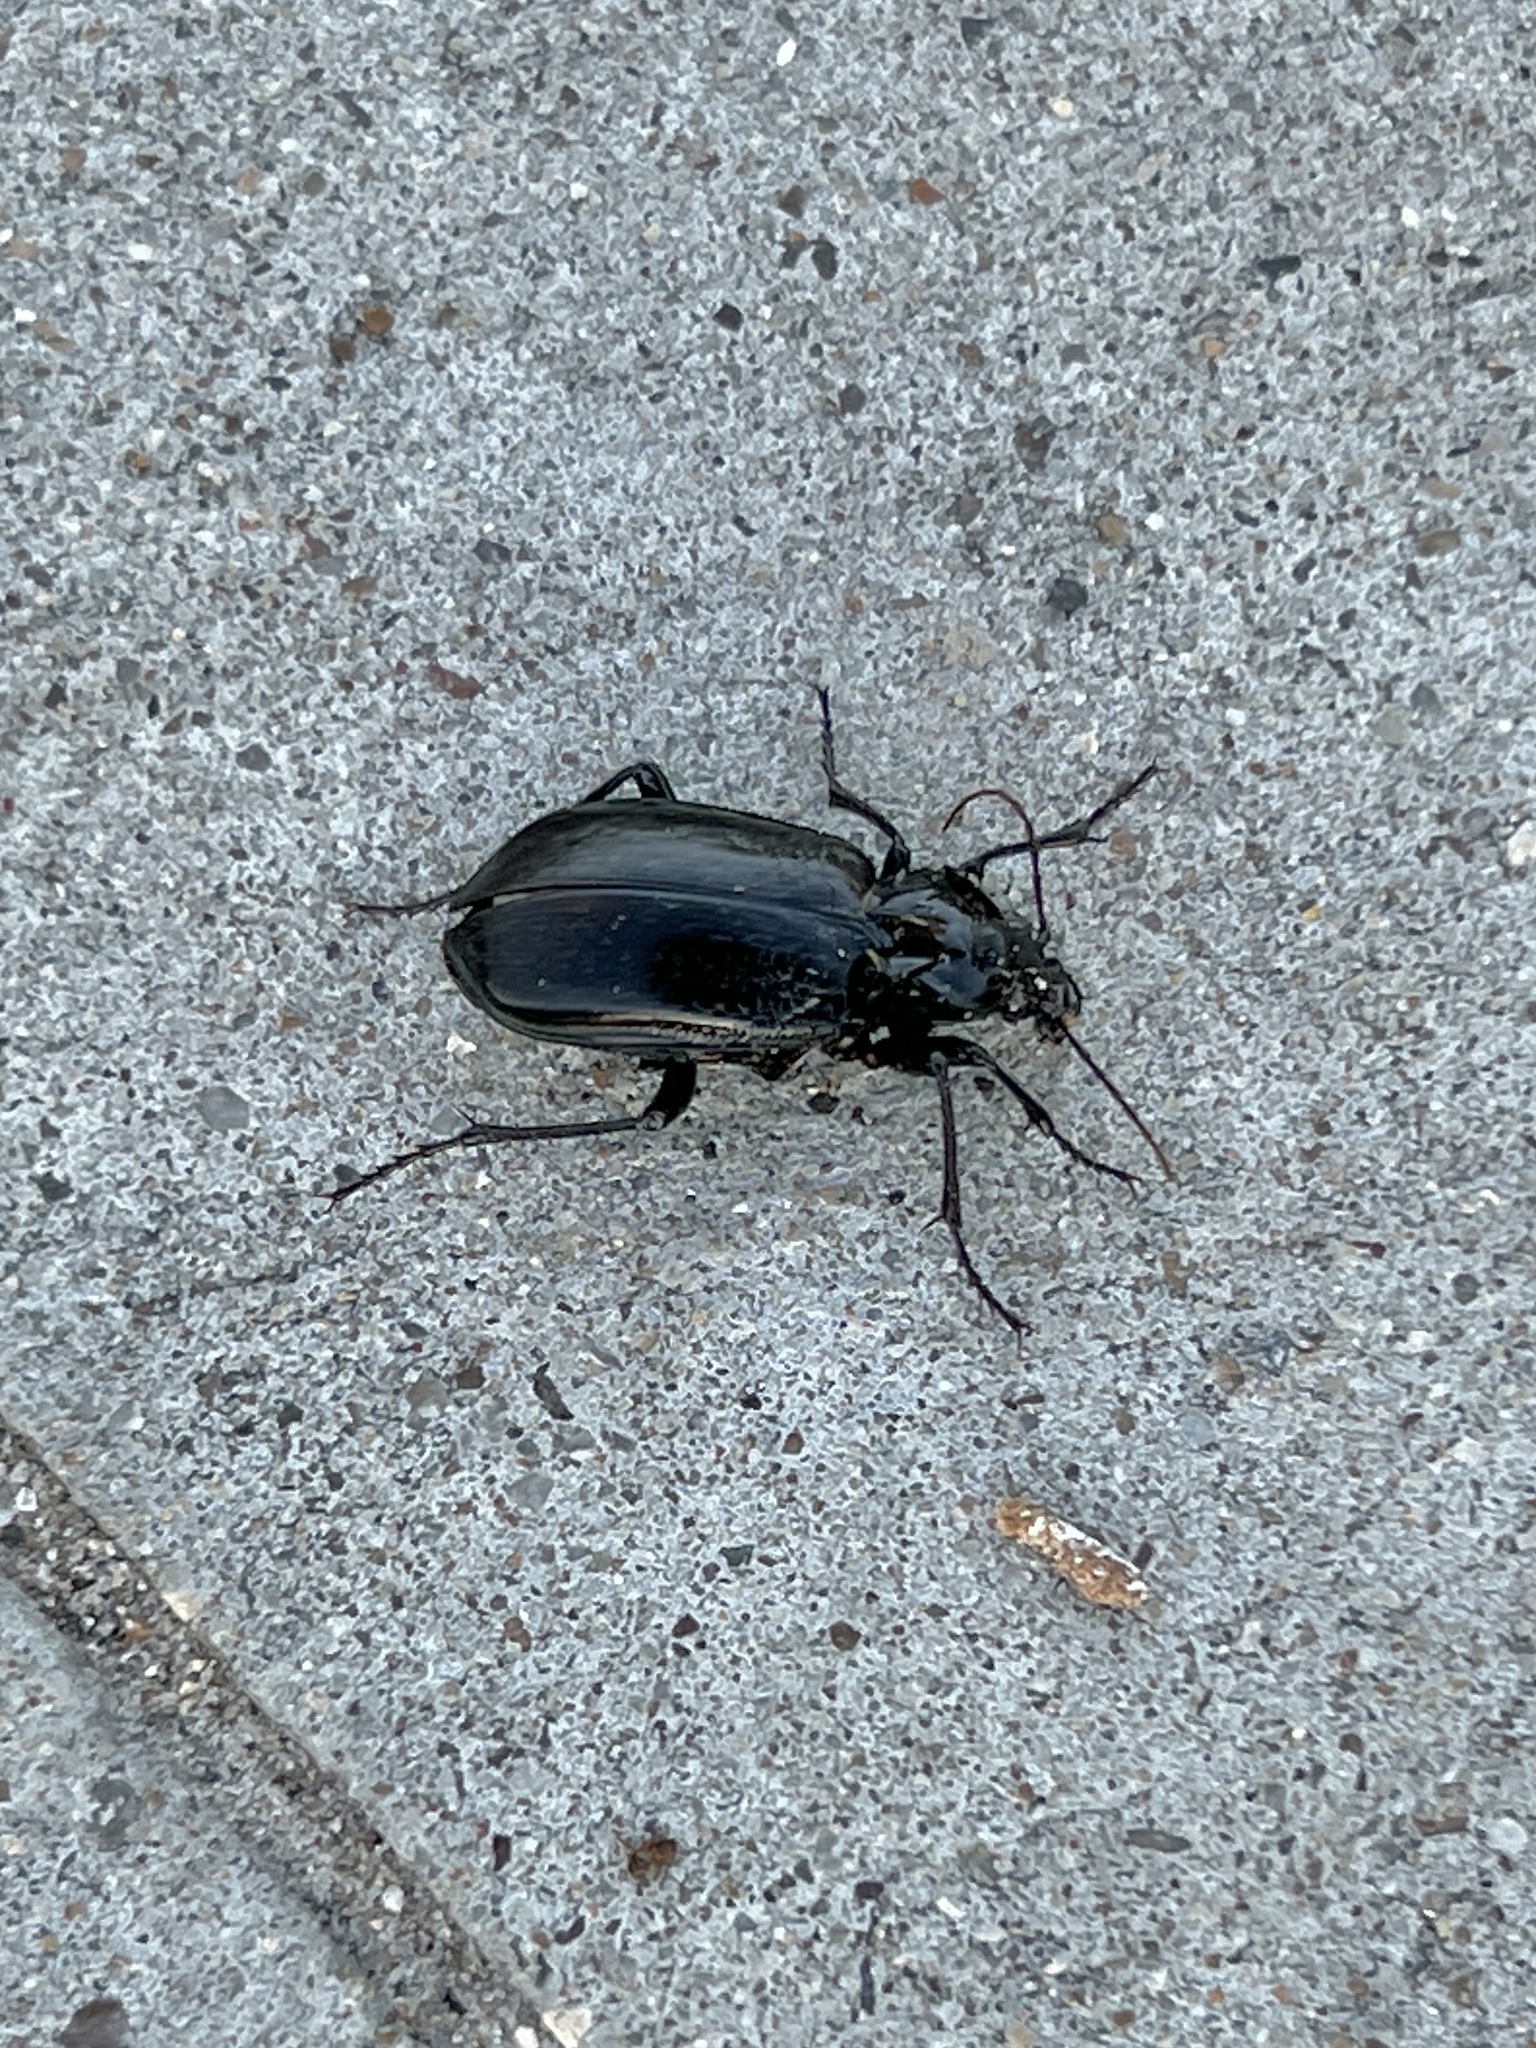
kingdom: Animalia
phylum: Arthropoda
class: Insecta
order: Coleoptera
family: Carabidae
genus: Calosoma
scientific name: Calosoma marginale
